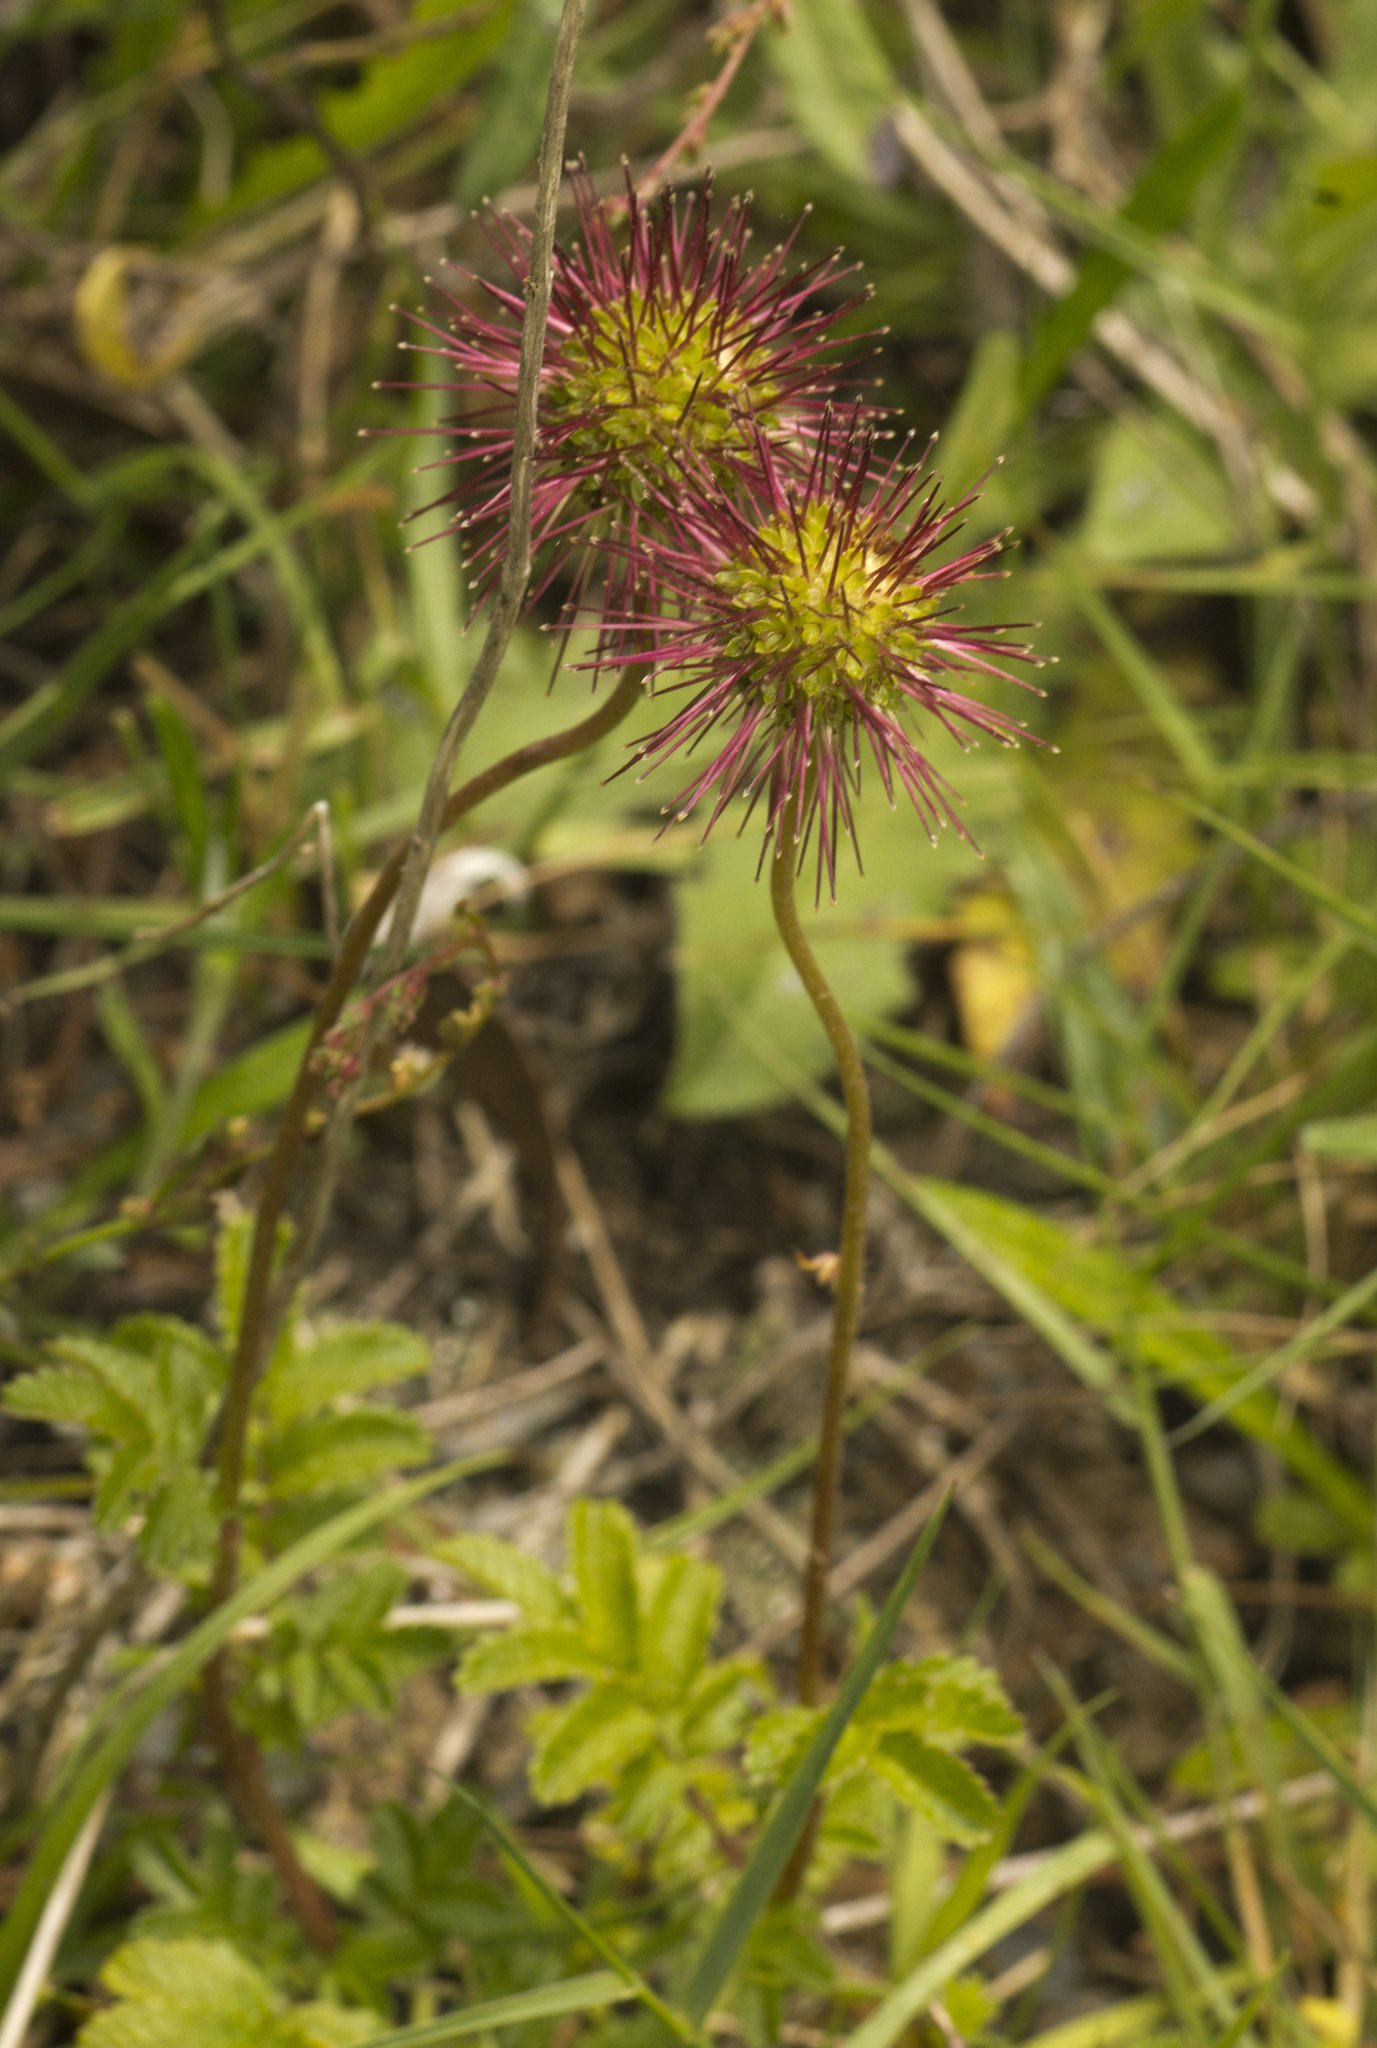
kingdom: Plantae
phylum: Tracheophyta
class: Magnoliopsida
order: Rosales
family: Rosaceae
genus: Acaena
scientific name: Acaena novae-zelandiae
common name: Pirri-pirri-bur
